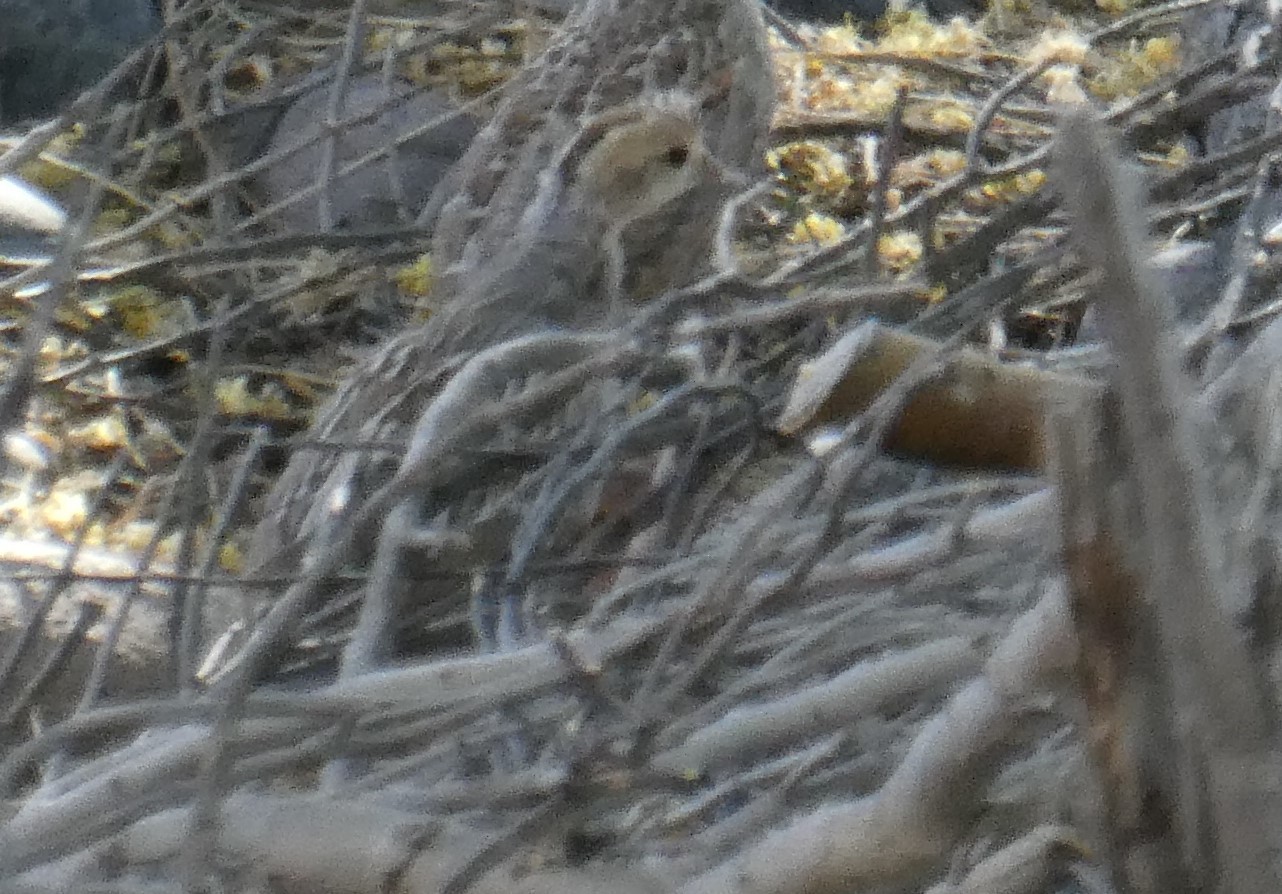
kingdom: Animalia
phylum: Chordata
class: Aves
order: Galliformes
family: Odontophoridae
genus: Callipepla
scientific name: Callipepla gambelii
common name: Gambel's quail
